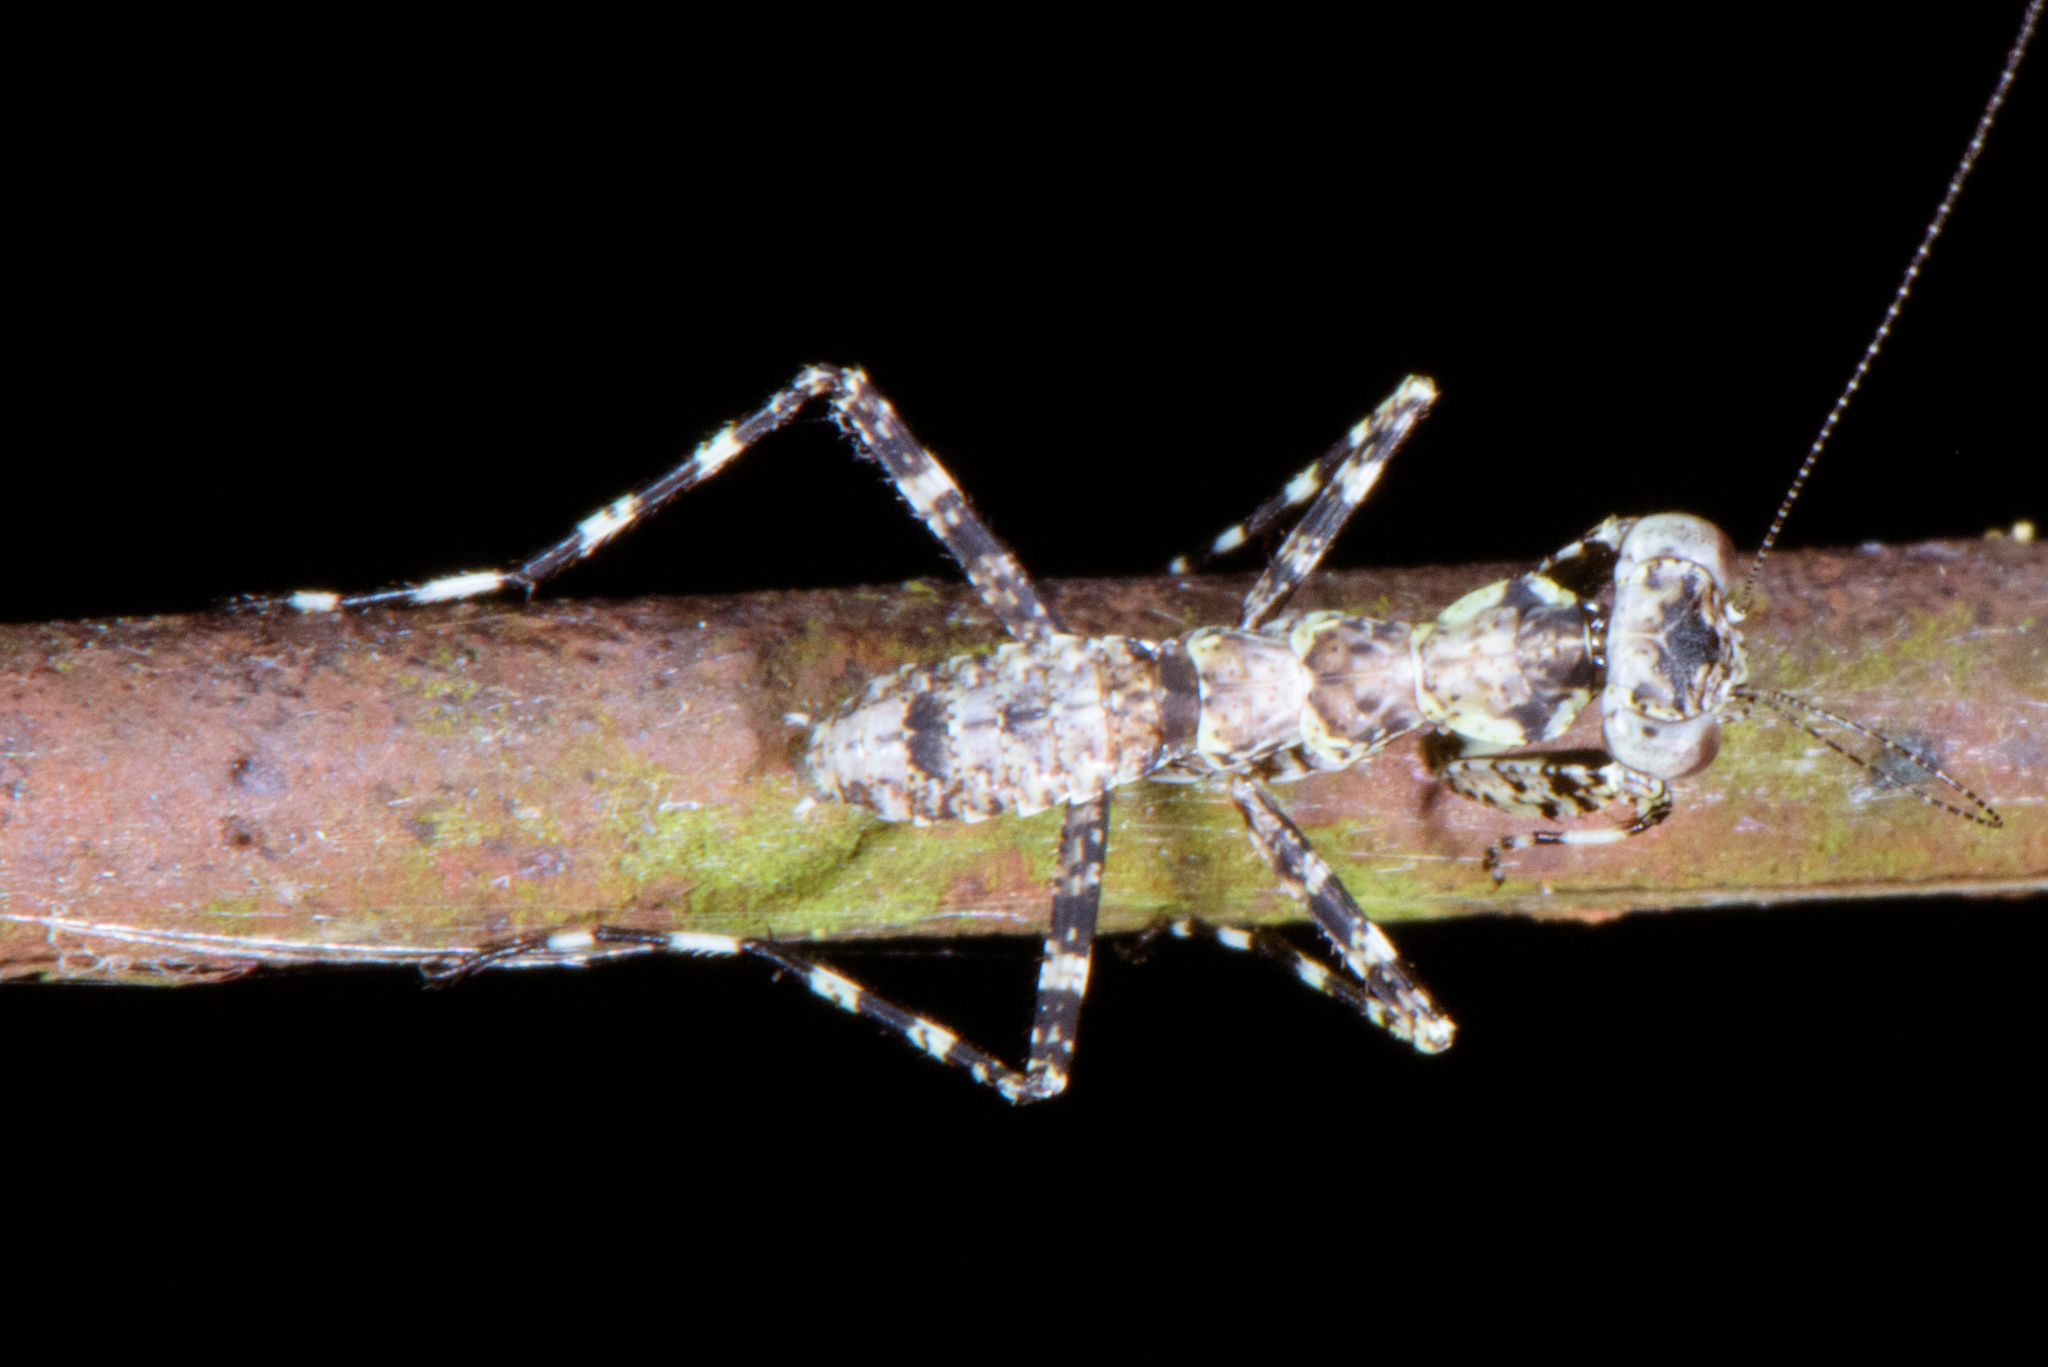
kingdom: Animalia
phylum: Arthropoda
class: Insecta
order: Mantodea
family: Gonypetidae
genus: Theopompa
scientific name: Theopompa ophthalmica
